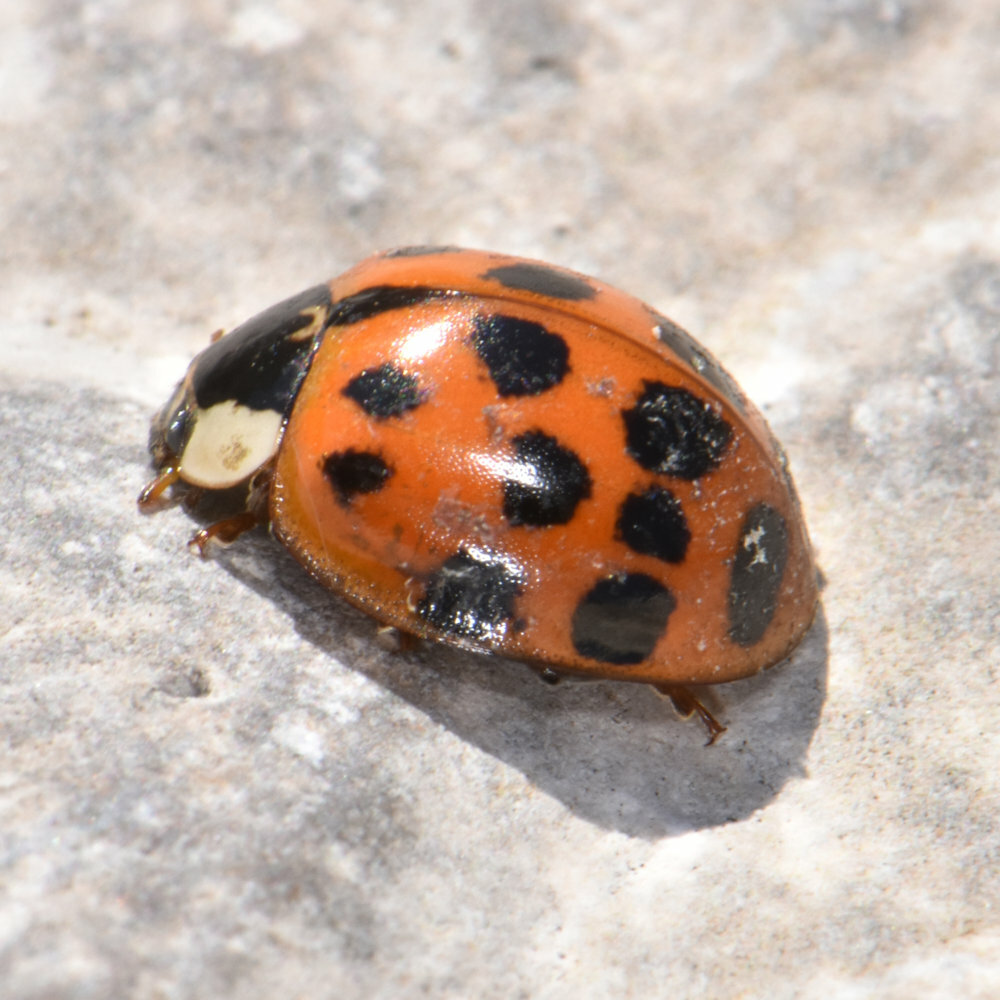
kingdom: Animalia
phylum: Arthropoda
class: Insecta
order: Coleoptera
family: Coccinellidae
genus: Harmonia
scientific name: Harmonia axyridis
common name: Harlequin ladybird
